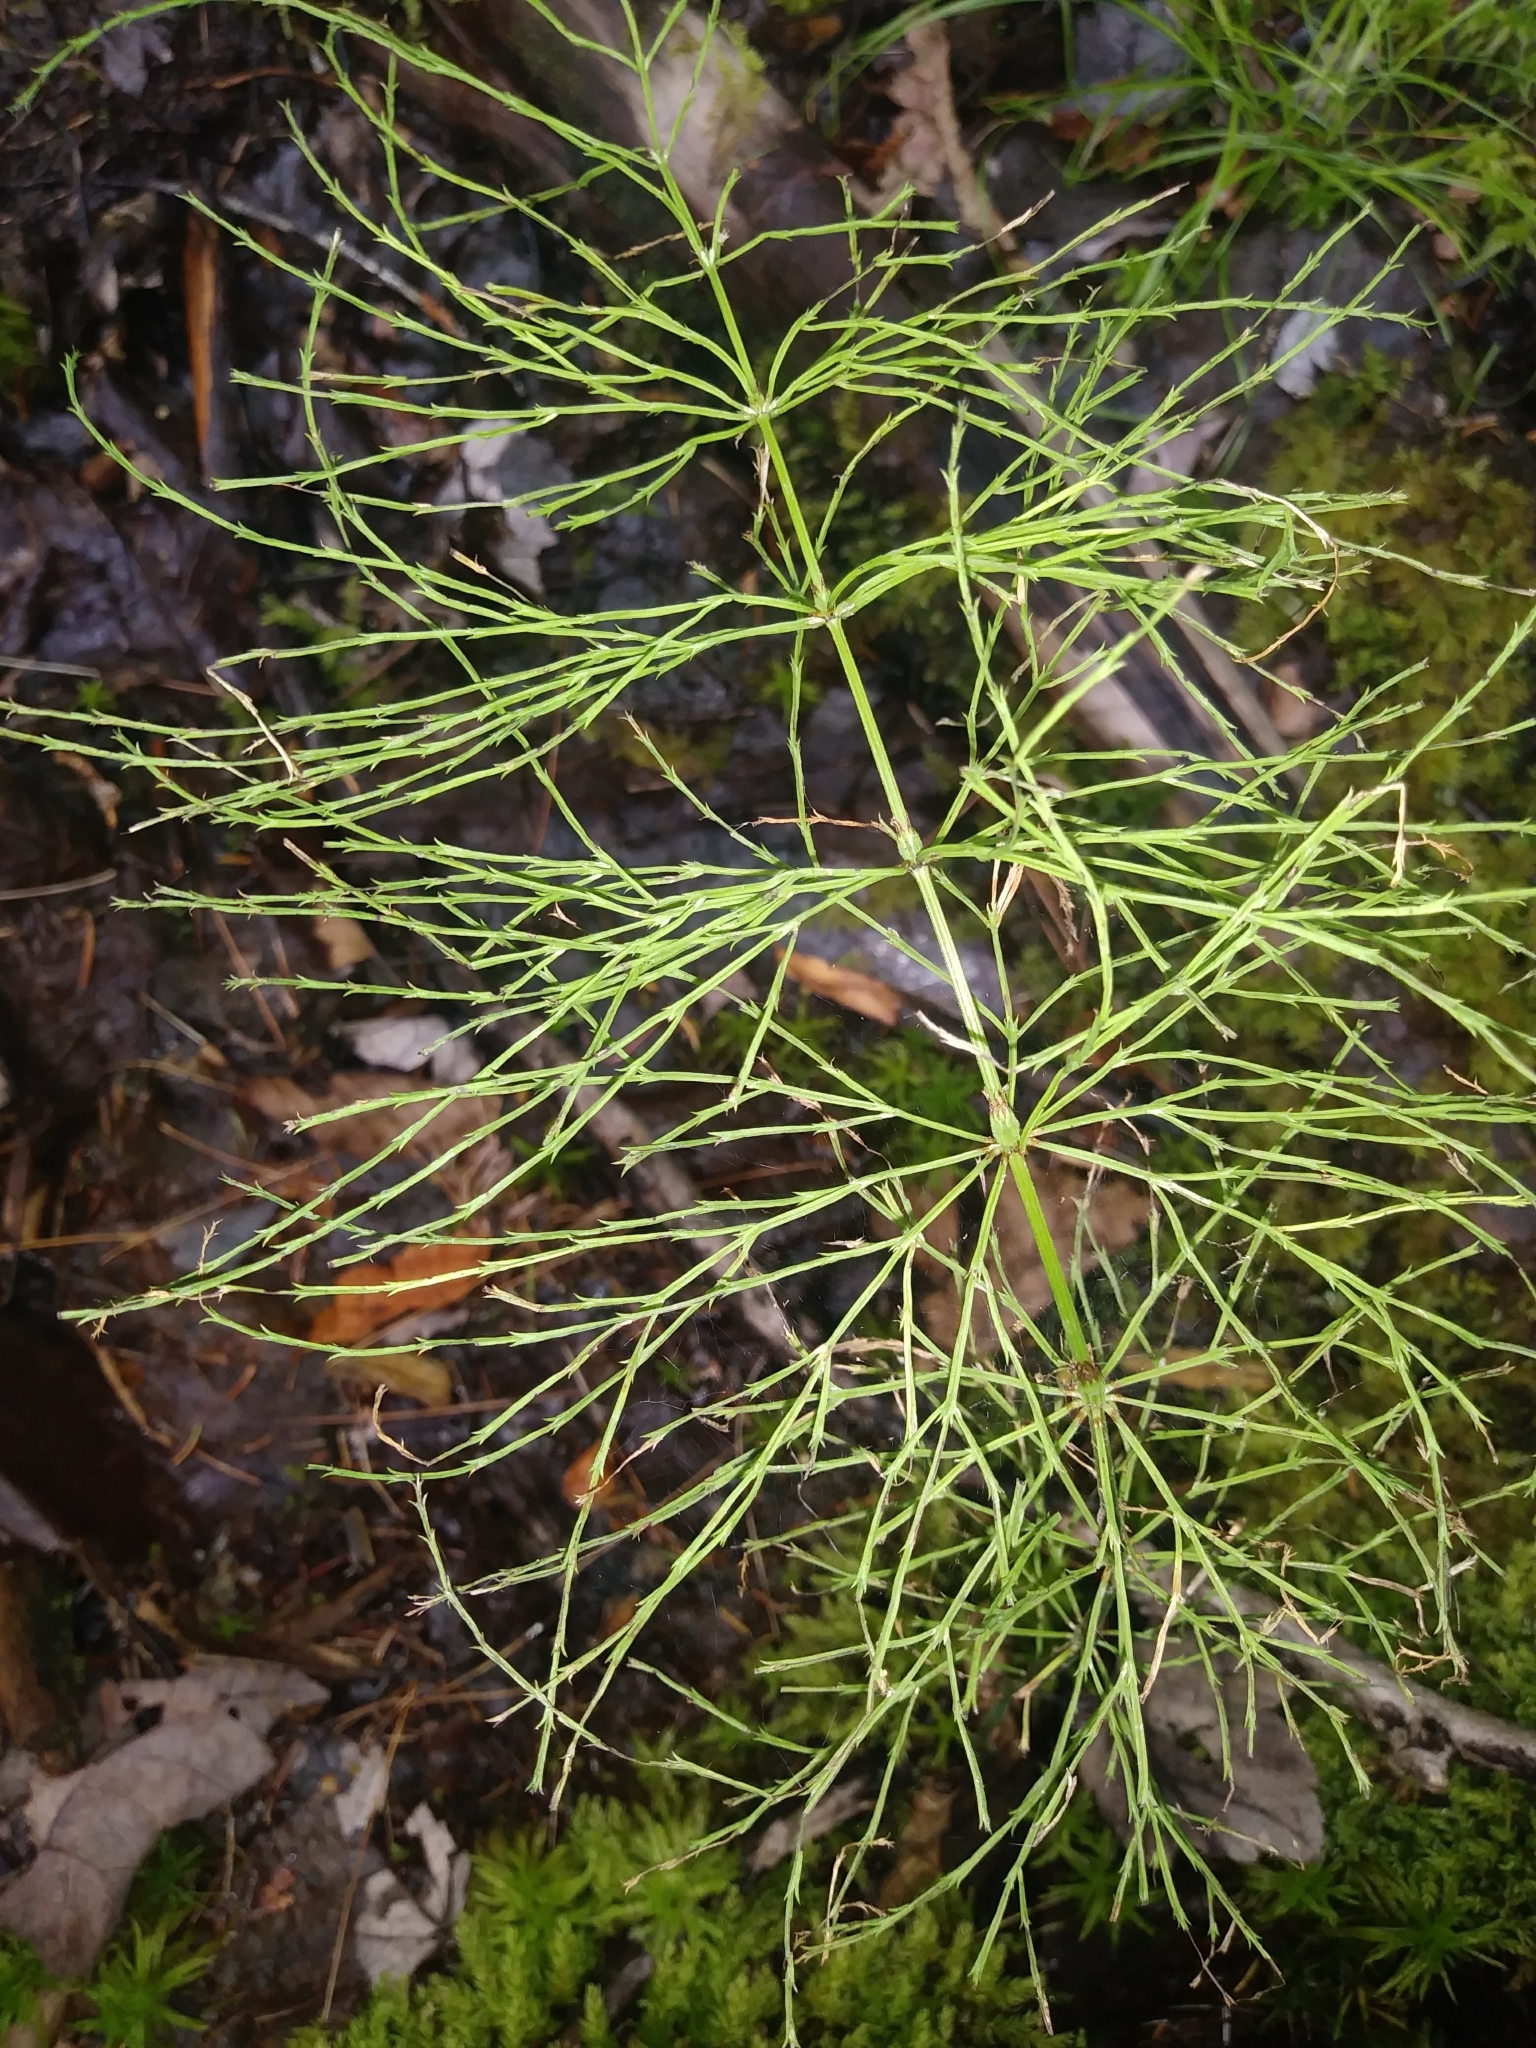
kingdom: Plantae
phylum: Tracheophyta
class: Polypodiopsida
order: Equisetales
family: Equisetaceae
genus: Equisetum
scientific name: Equisetum sylvaticum
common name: Wood horsetail
